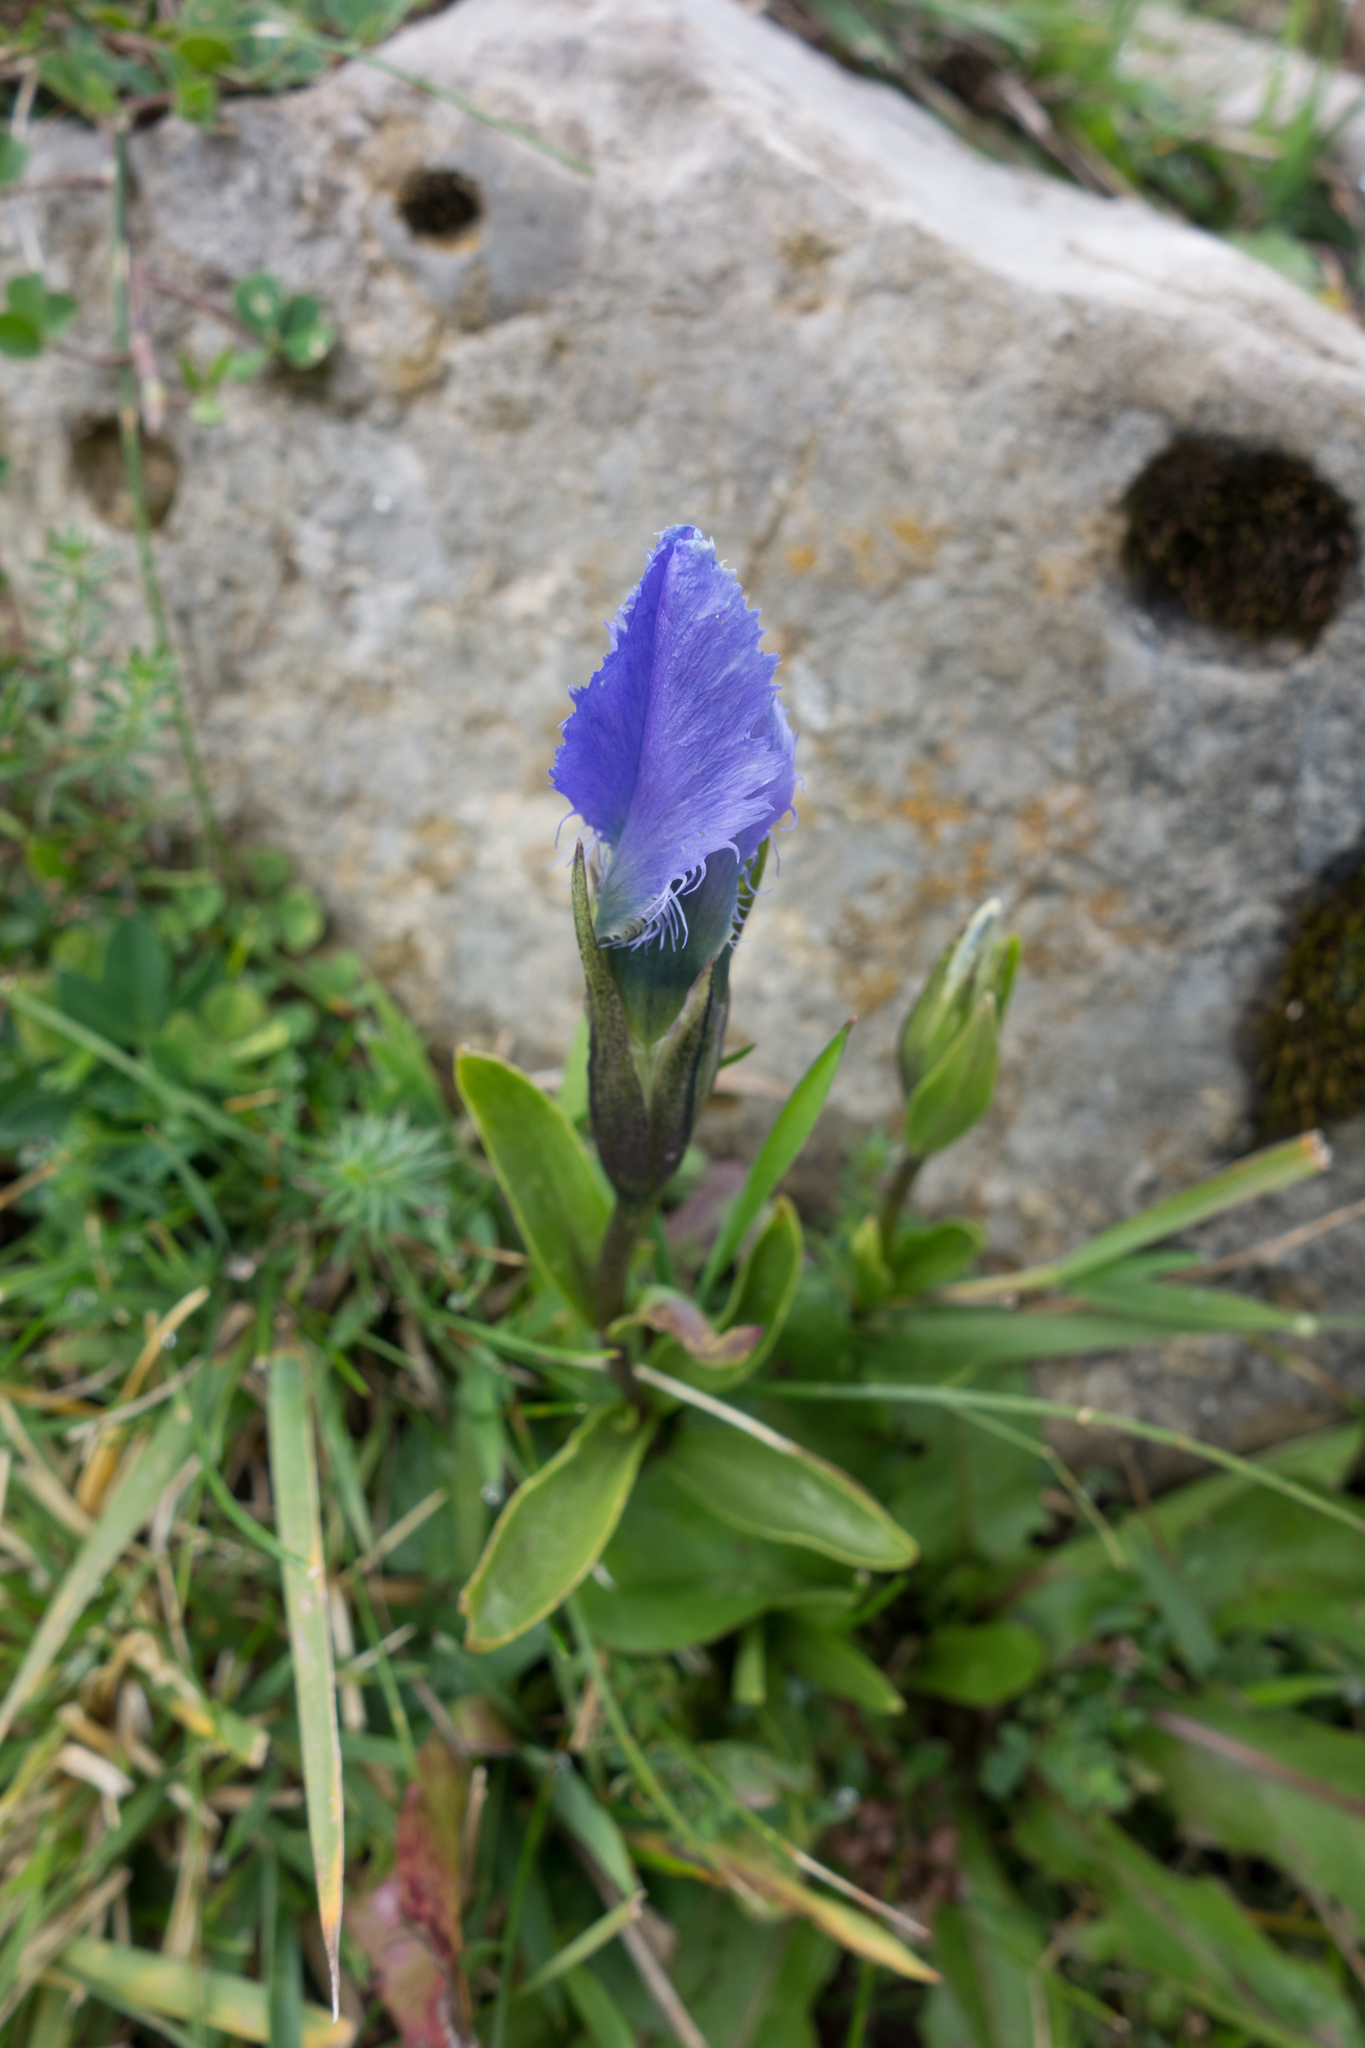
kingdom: Plantae
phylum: Tracheophyta
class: Magnoliopsida
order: Gentianales
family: Gentianaceae
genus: Gentianopsis
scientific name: Gentianopsis ciliata
